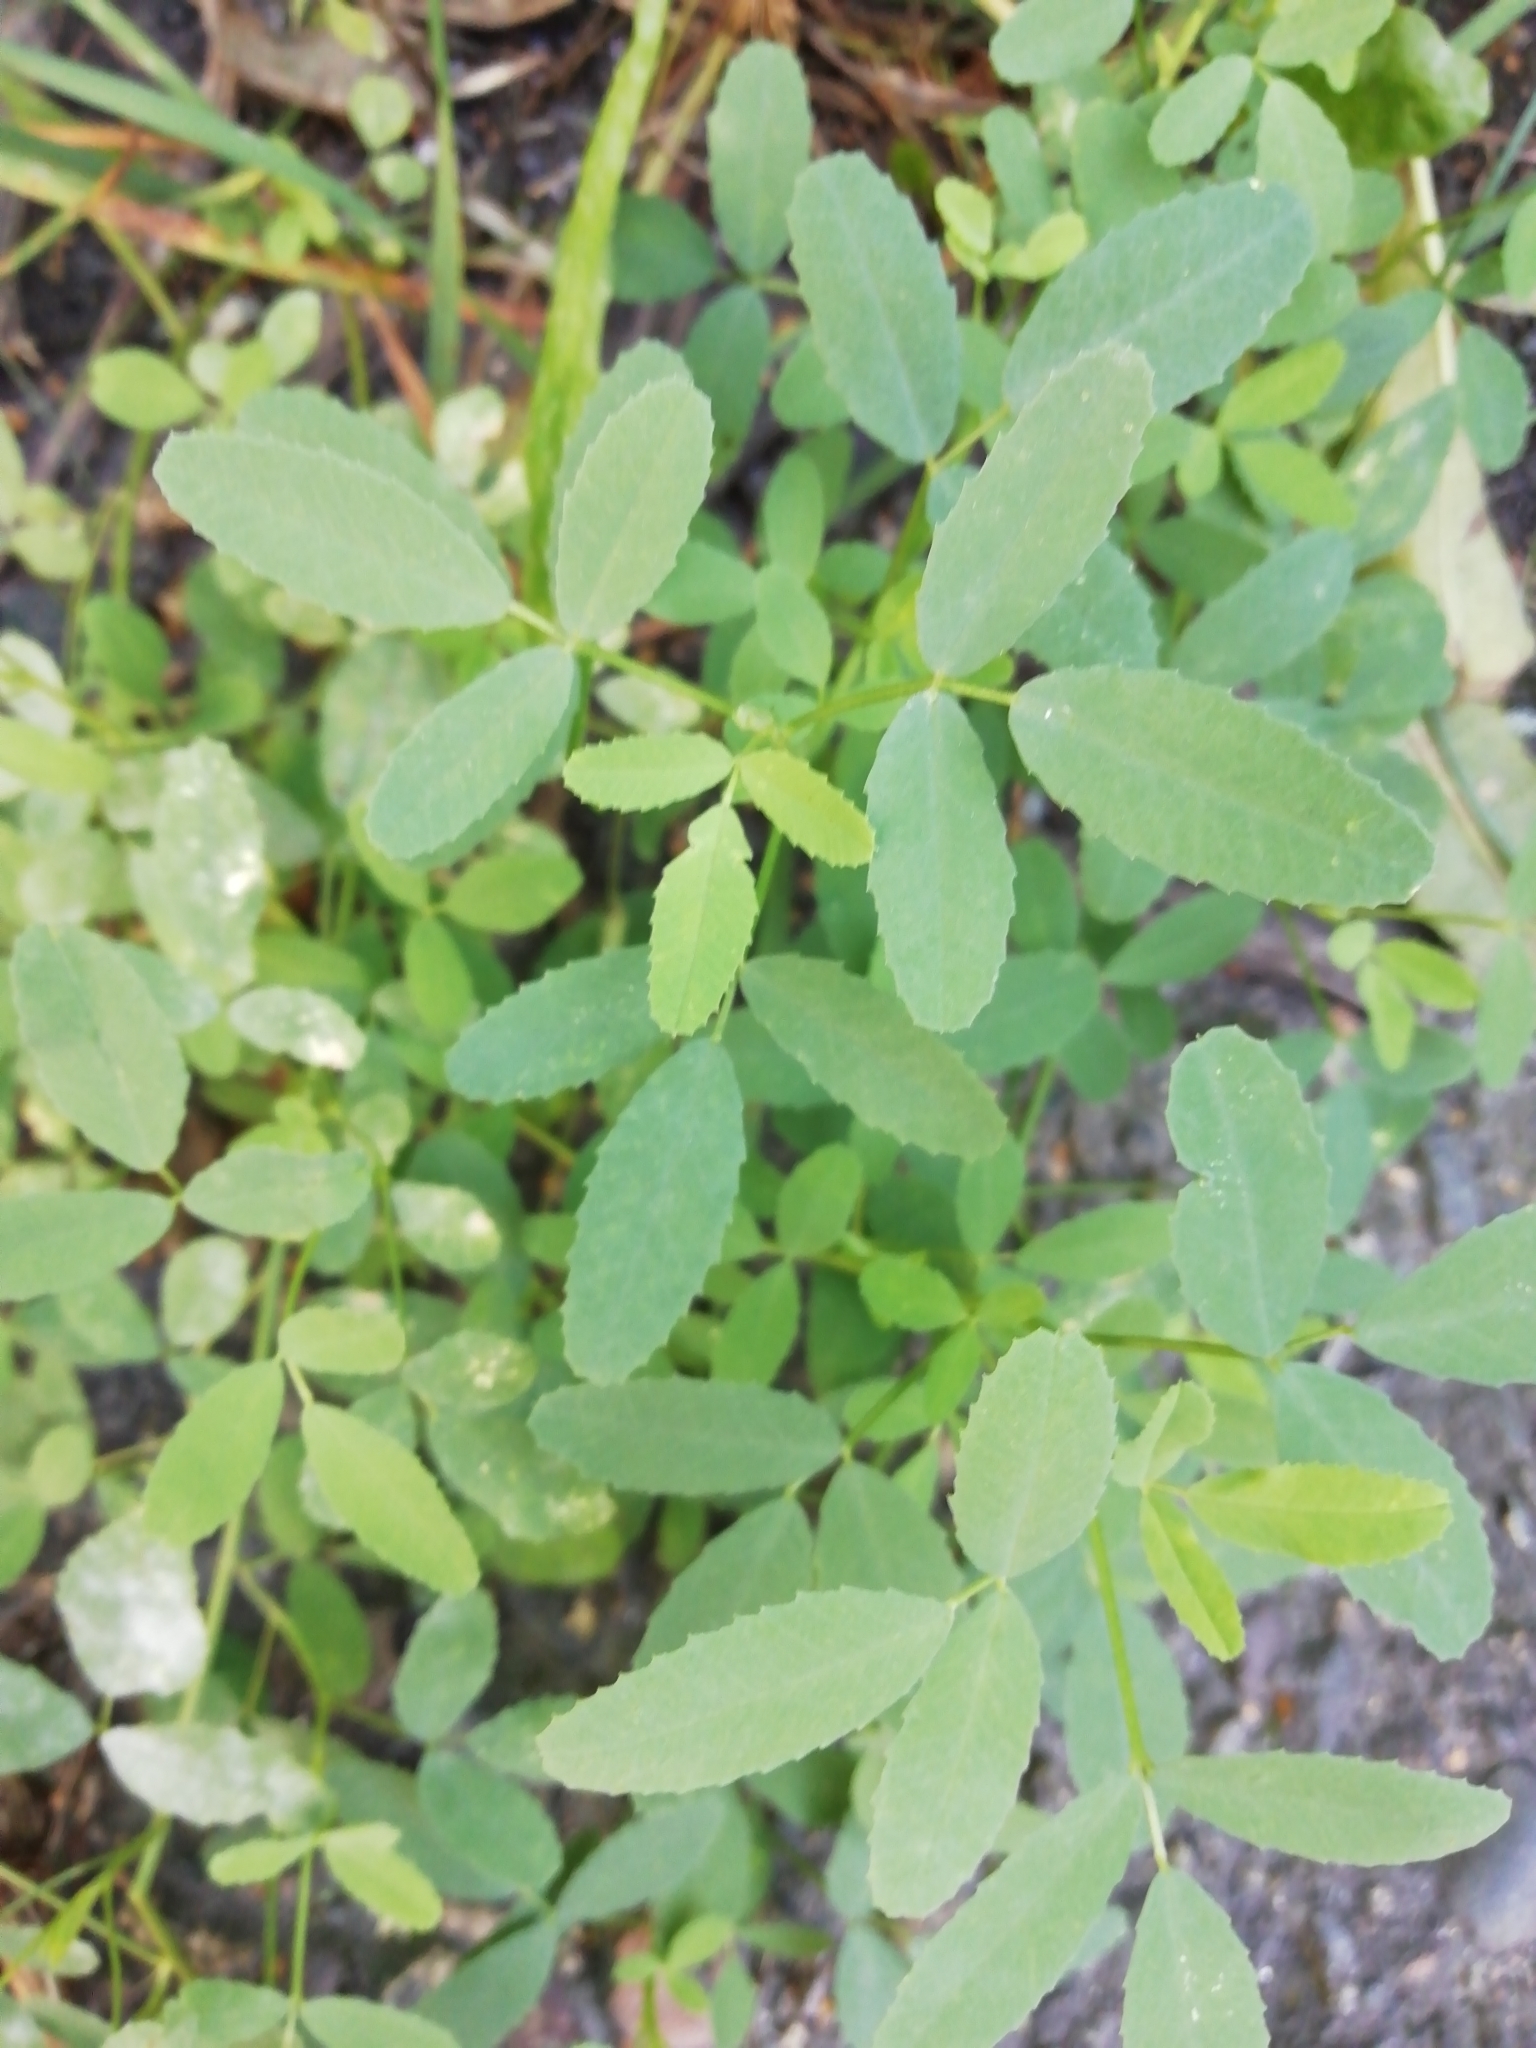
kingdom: Plantae
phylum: Tracheophyta
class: Magnoliopsida
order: Fabales
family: Fabaceae
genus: Melilotus
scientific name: Melilotus
